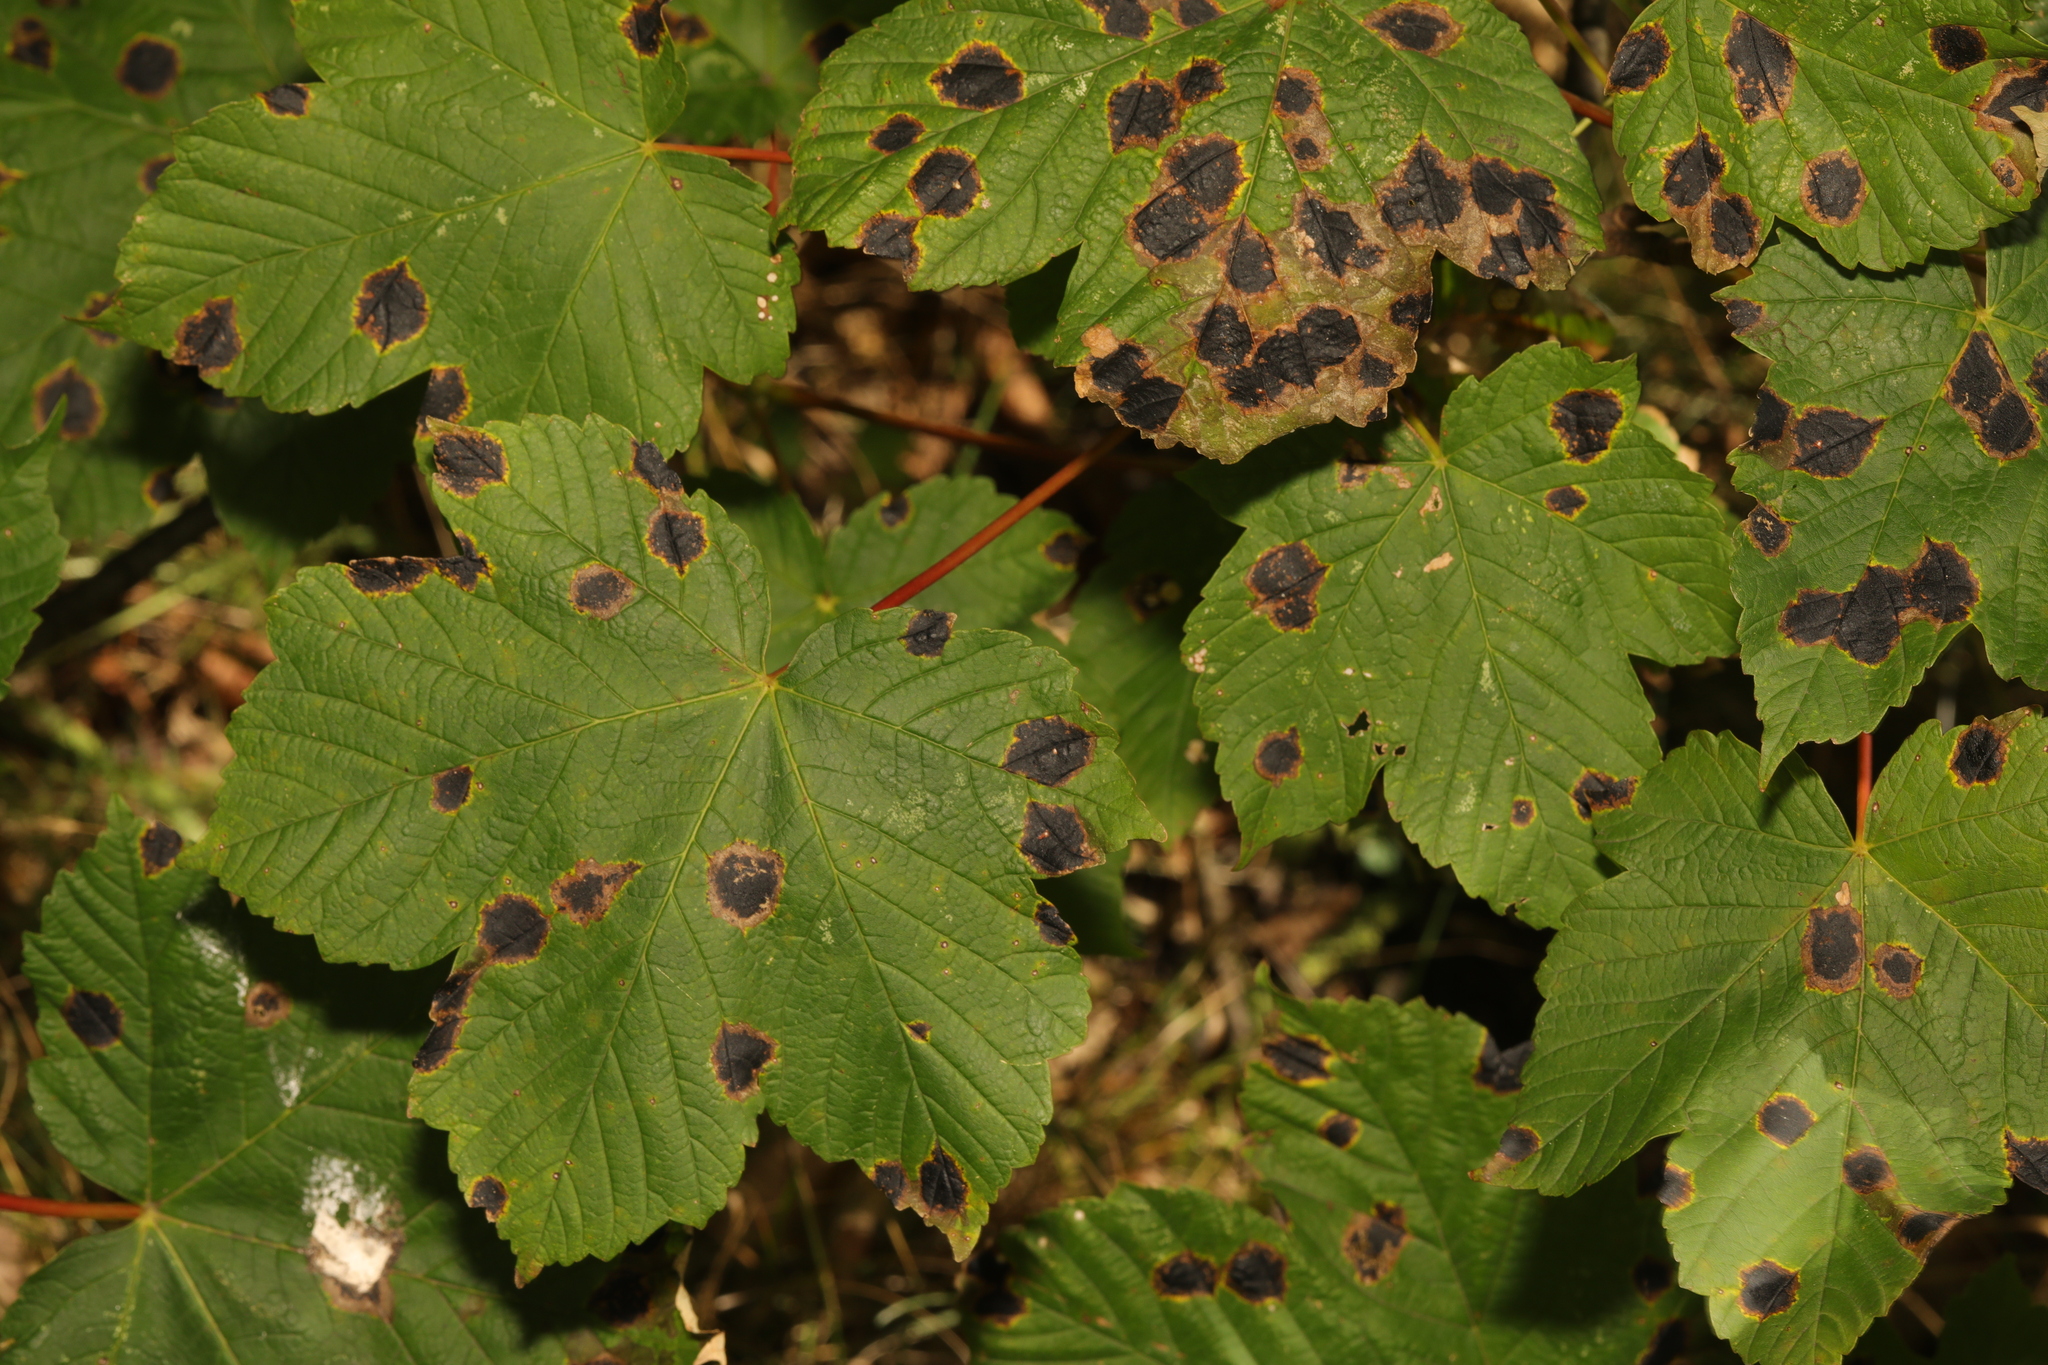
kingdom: Fungi
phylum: Ascomycota
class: Leotiomycetes
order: Rhytismatales
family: Rhytismataceae
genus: Rhytisma
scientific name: Rhytisma acerinum
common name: European tar spot
